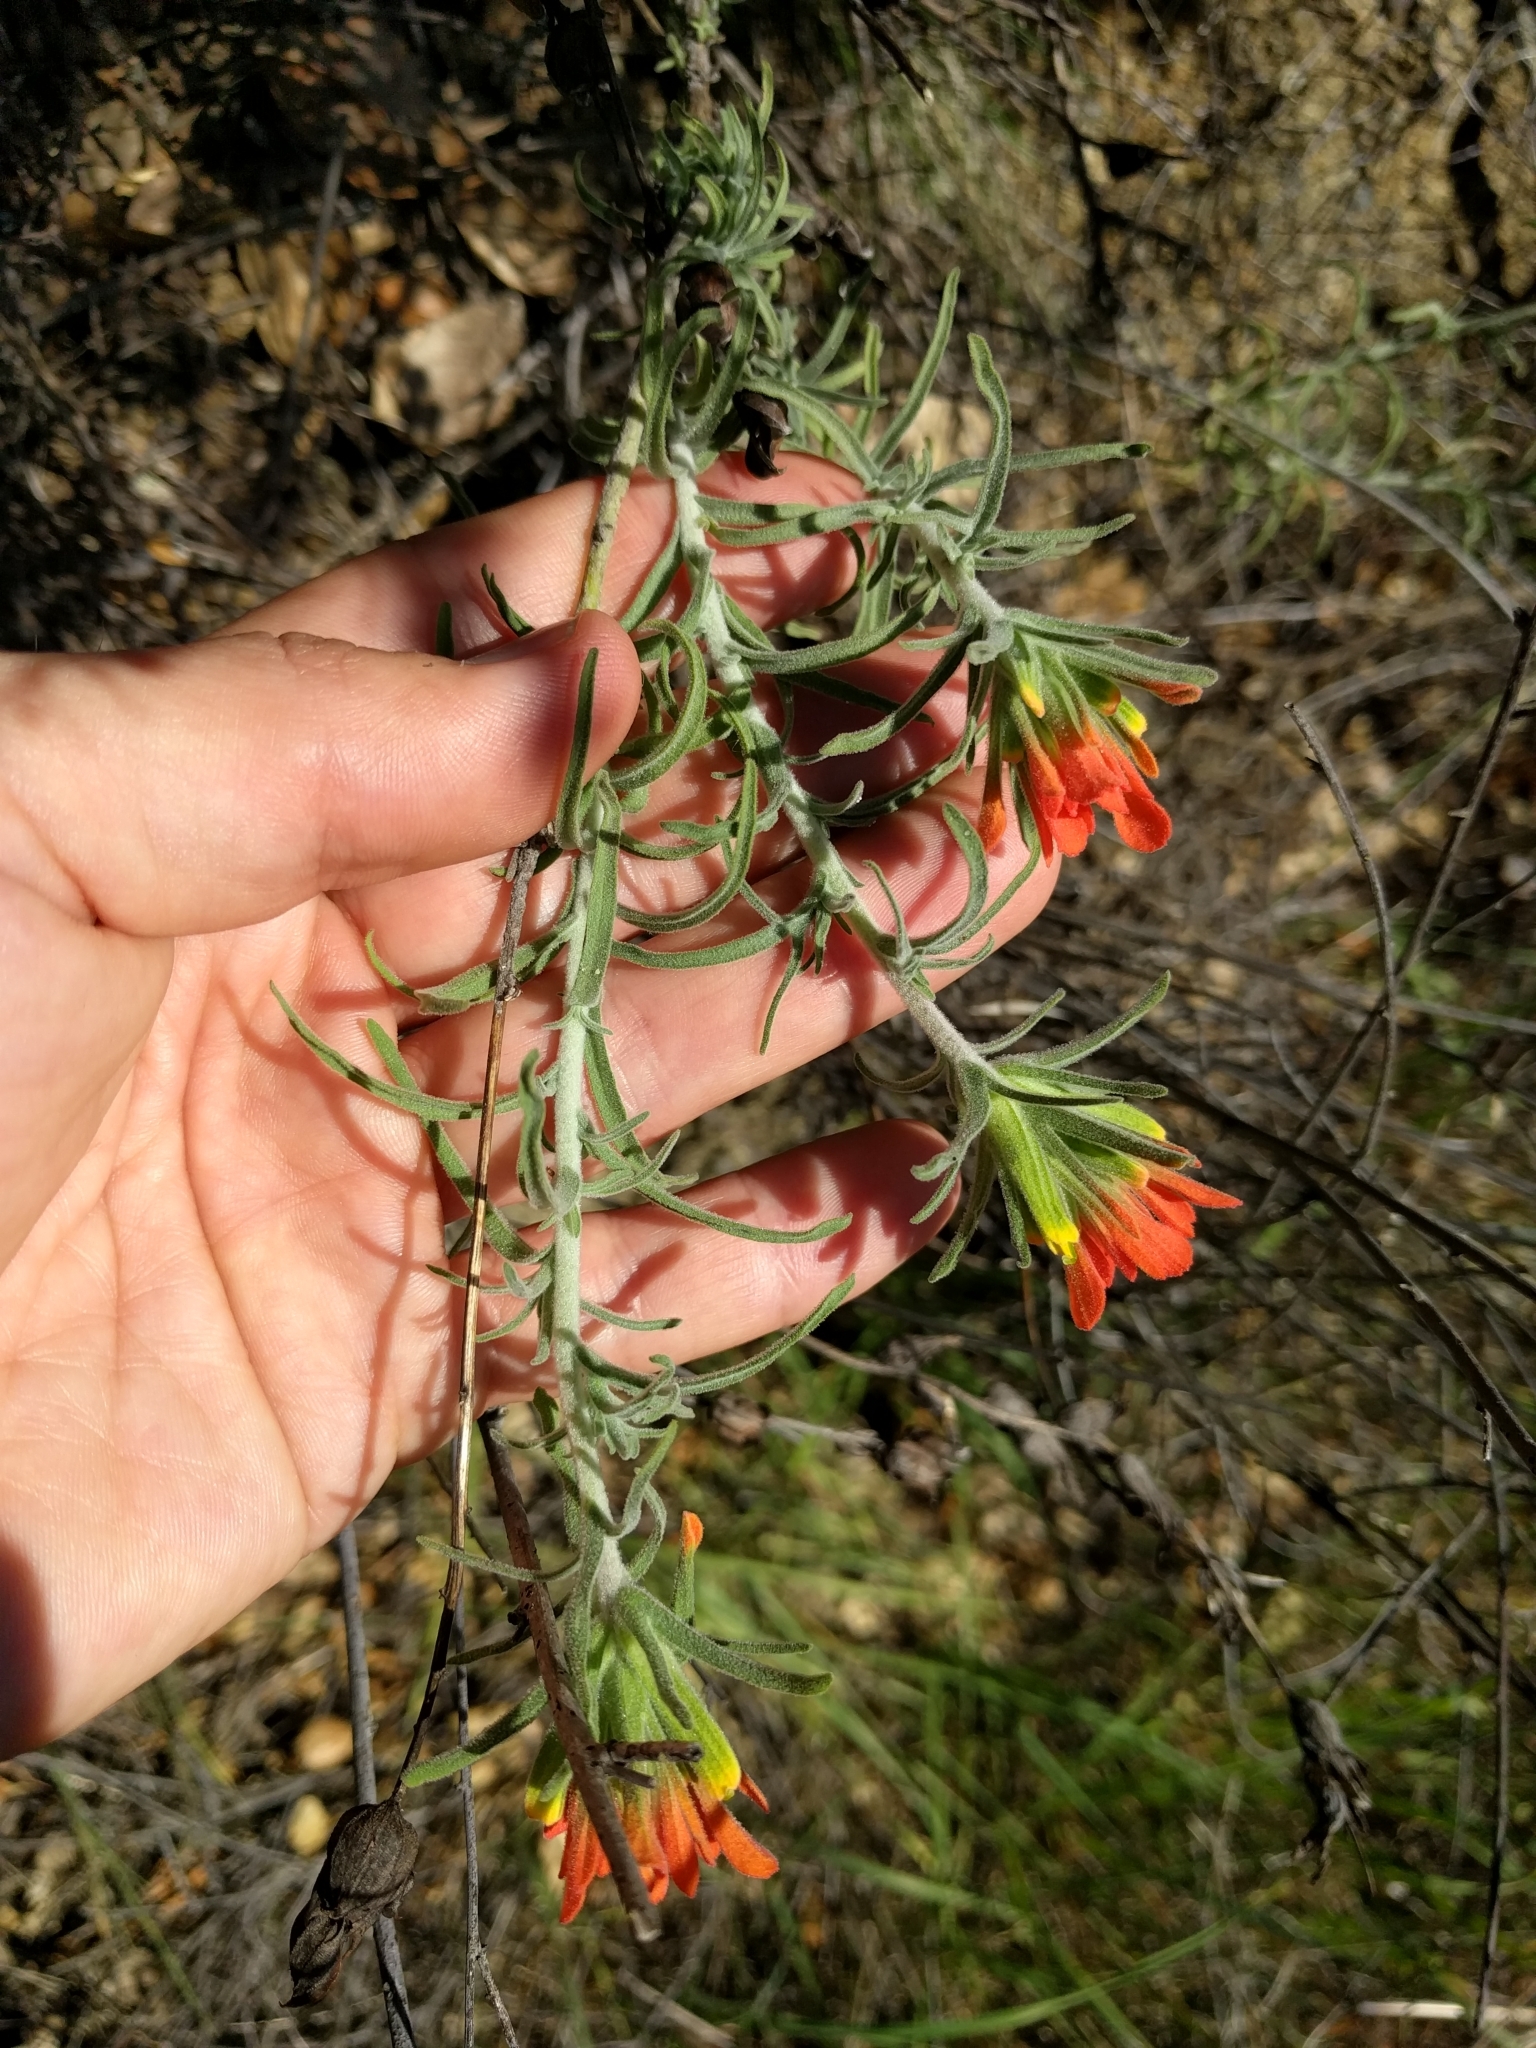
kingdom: Plantae
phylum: Tracheophyta
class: Magnoliopsida
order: Lamiales
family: Orobanchaceae
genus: Castilleja
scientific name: Castilleja foliolosa
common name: Woolly indian paintbrush
